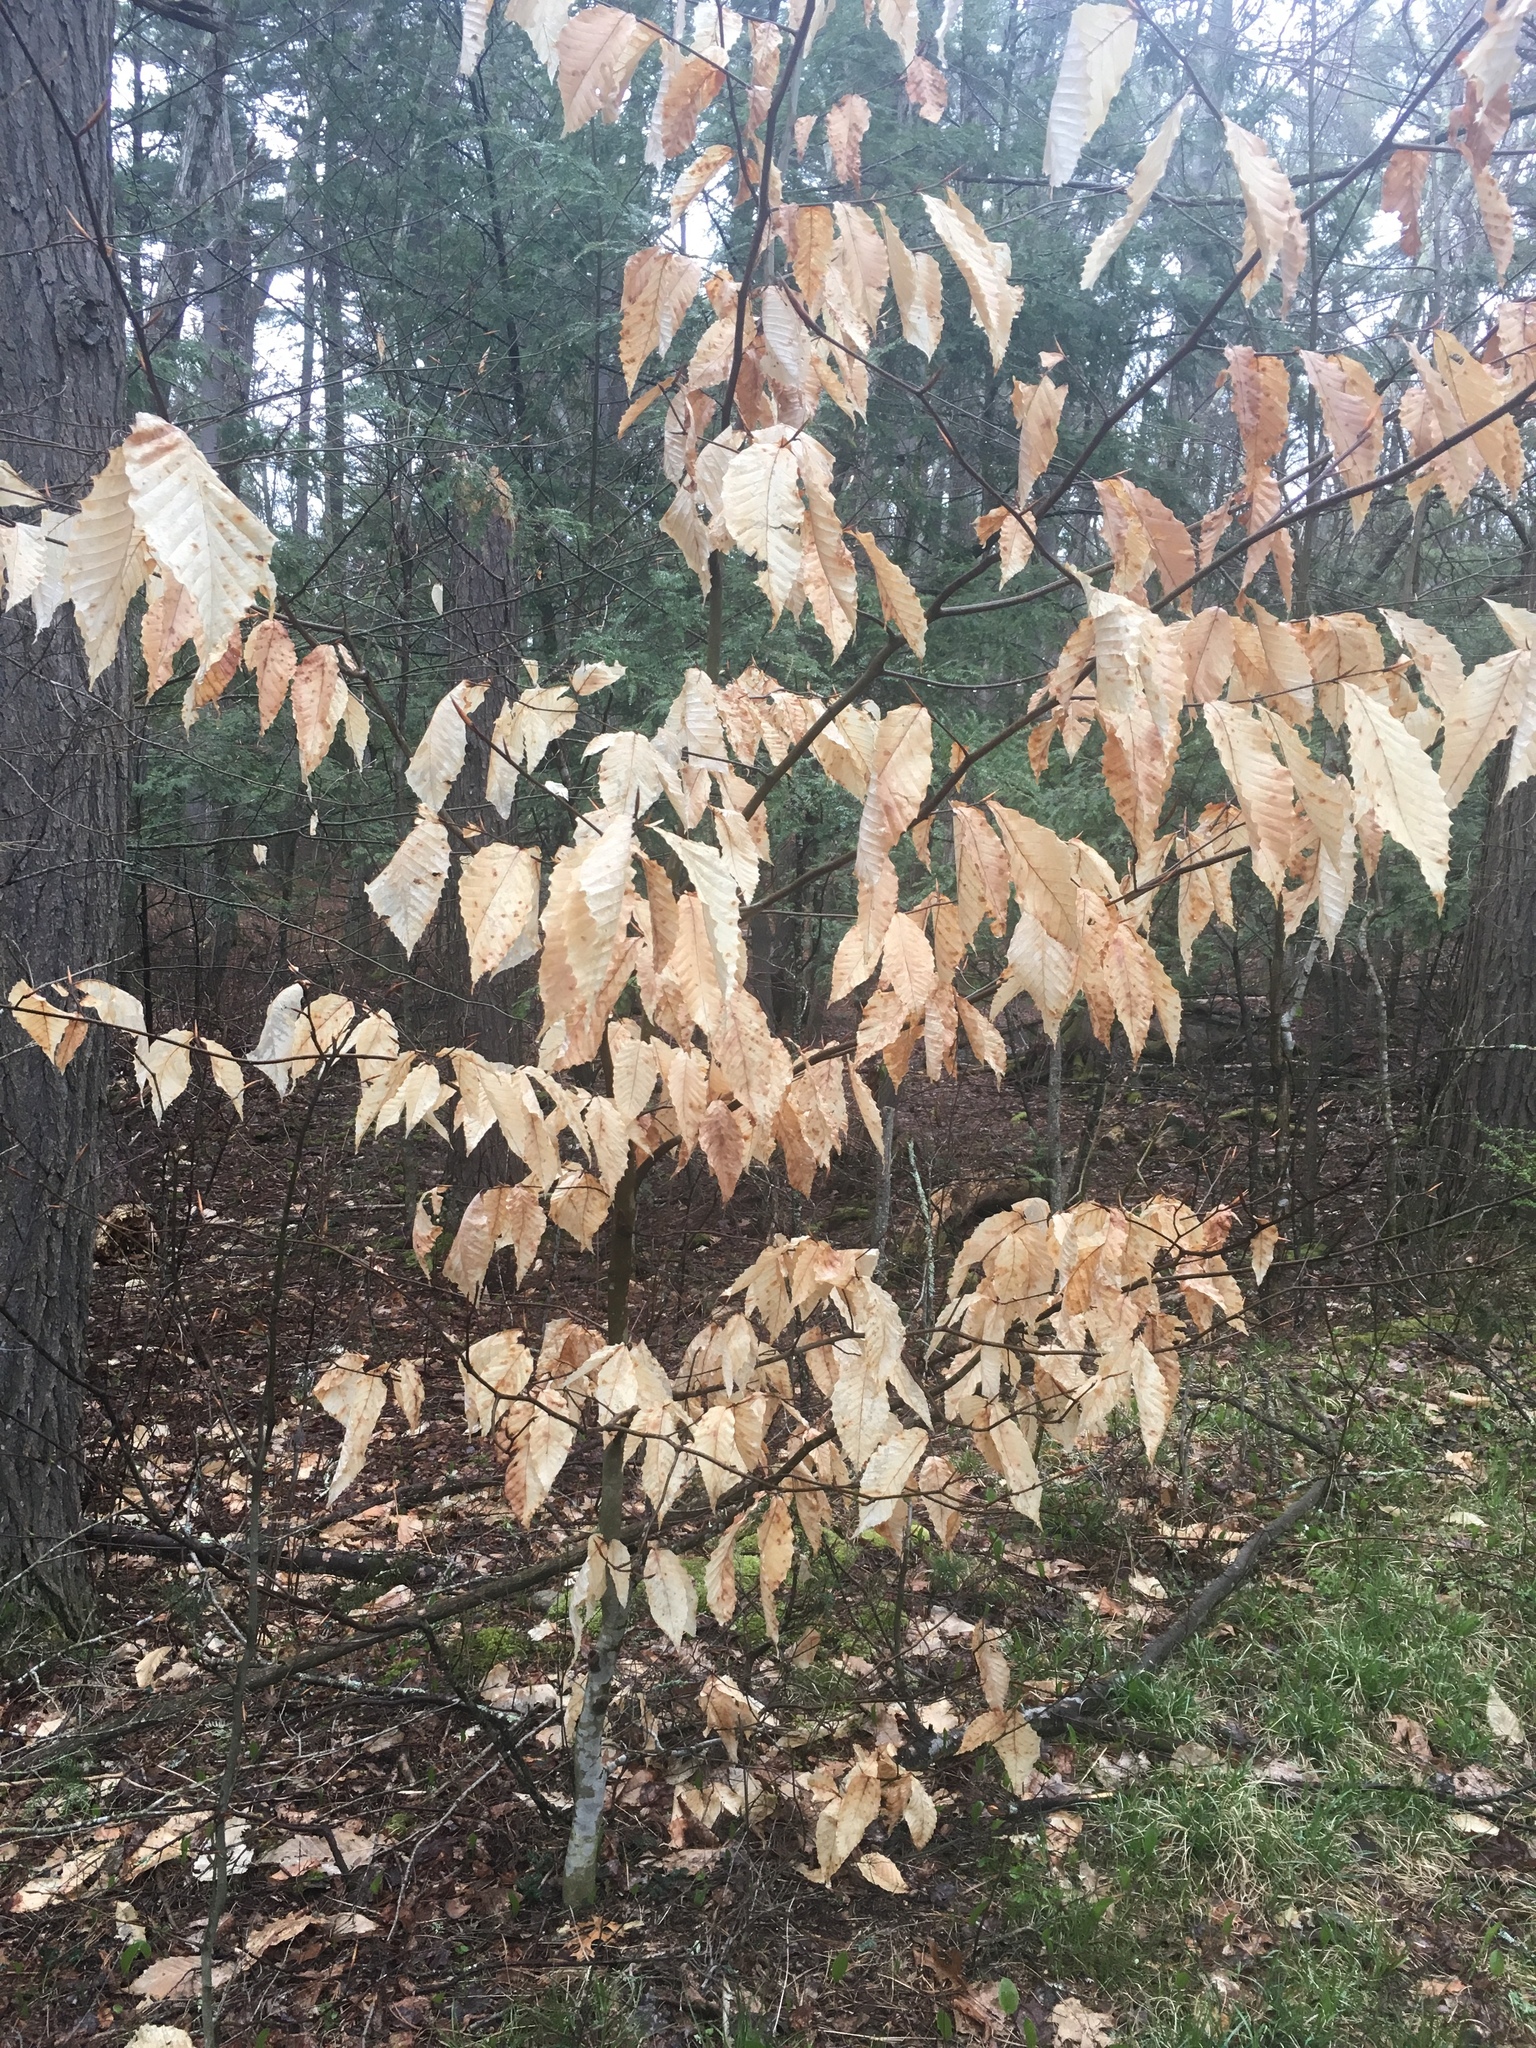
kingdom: Plantae
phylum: Tracheophyta
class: Magnoliopsida
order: Fagales
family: Fagaceae
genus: Fagus
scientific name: Fagus grandifolia
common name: American beech
